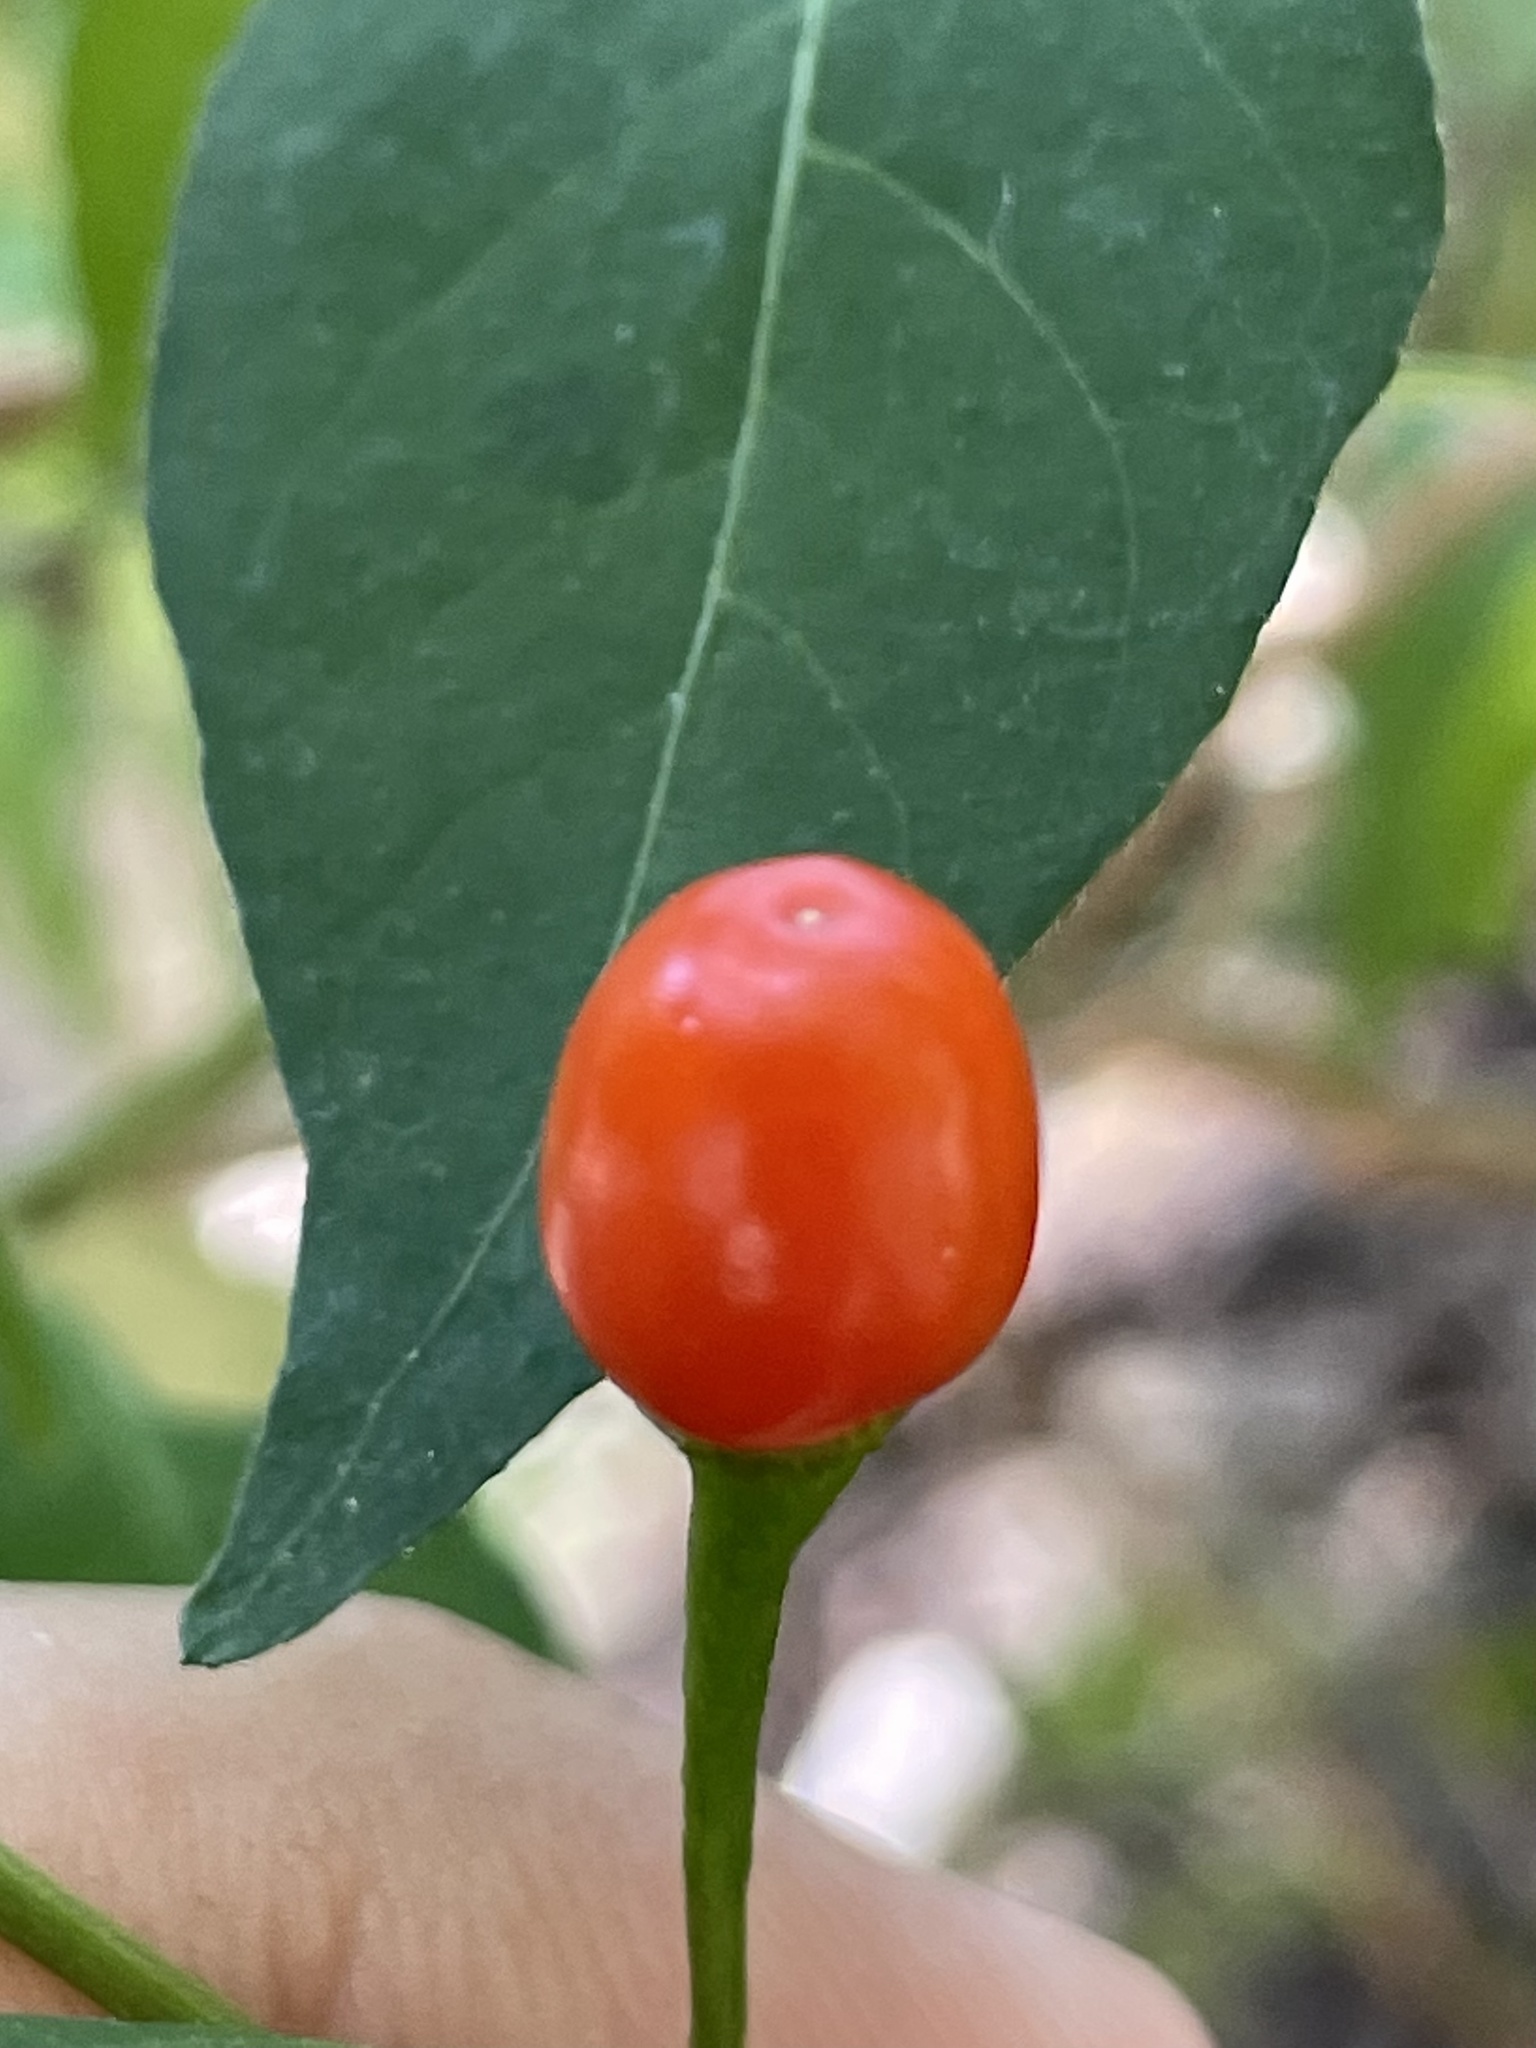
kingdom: Plantae
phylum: Tracheophyta
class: Magnoliopsida
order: Solanales
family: Solanaceae
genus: Capsicum
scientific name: Capsicum annuum
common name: Sweet pepper
